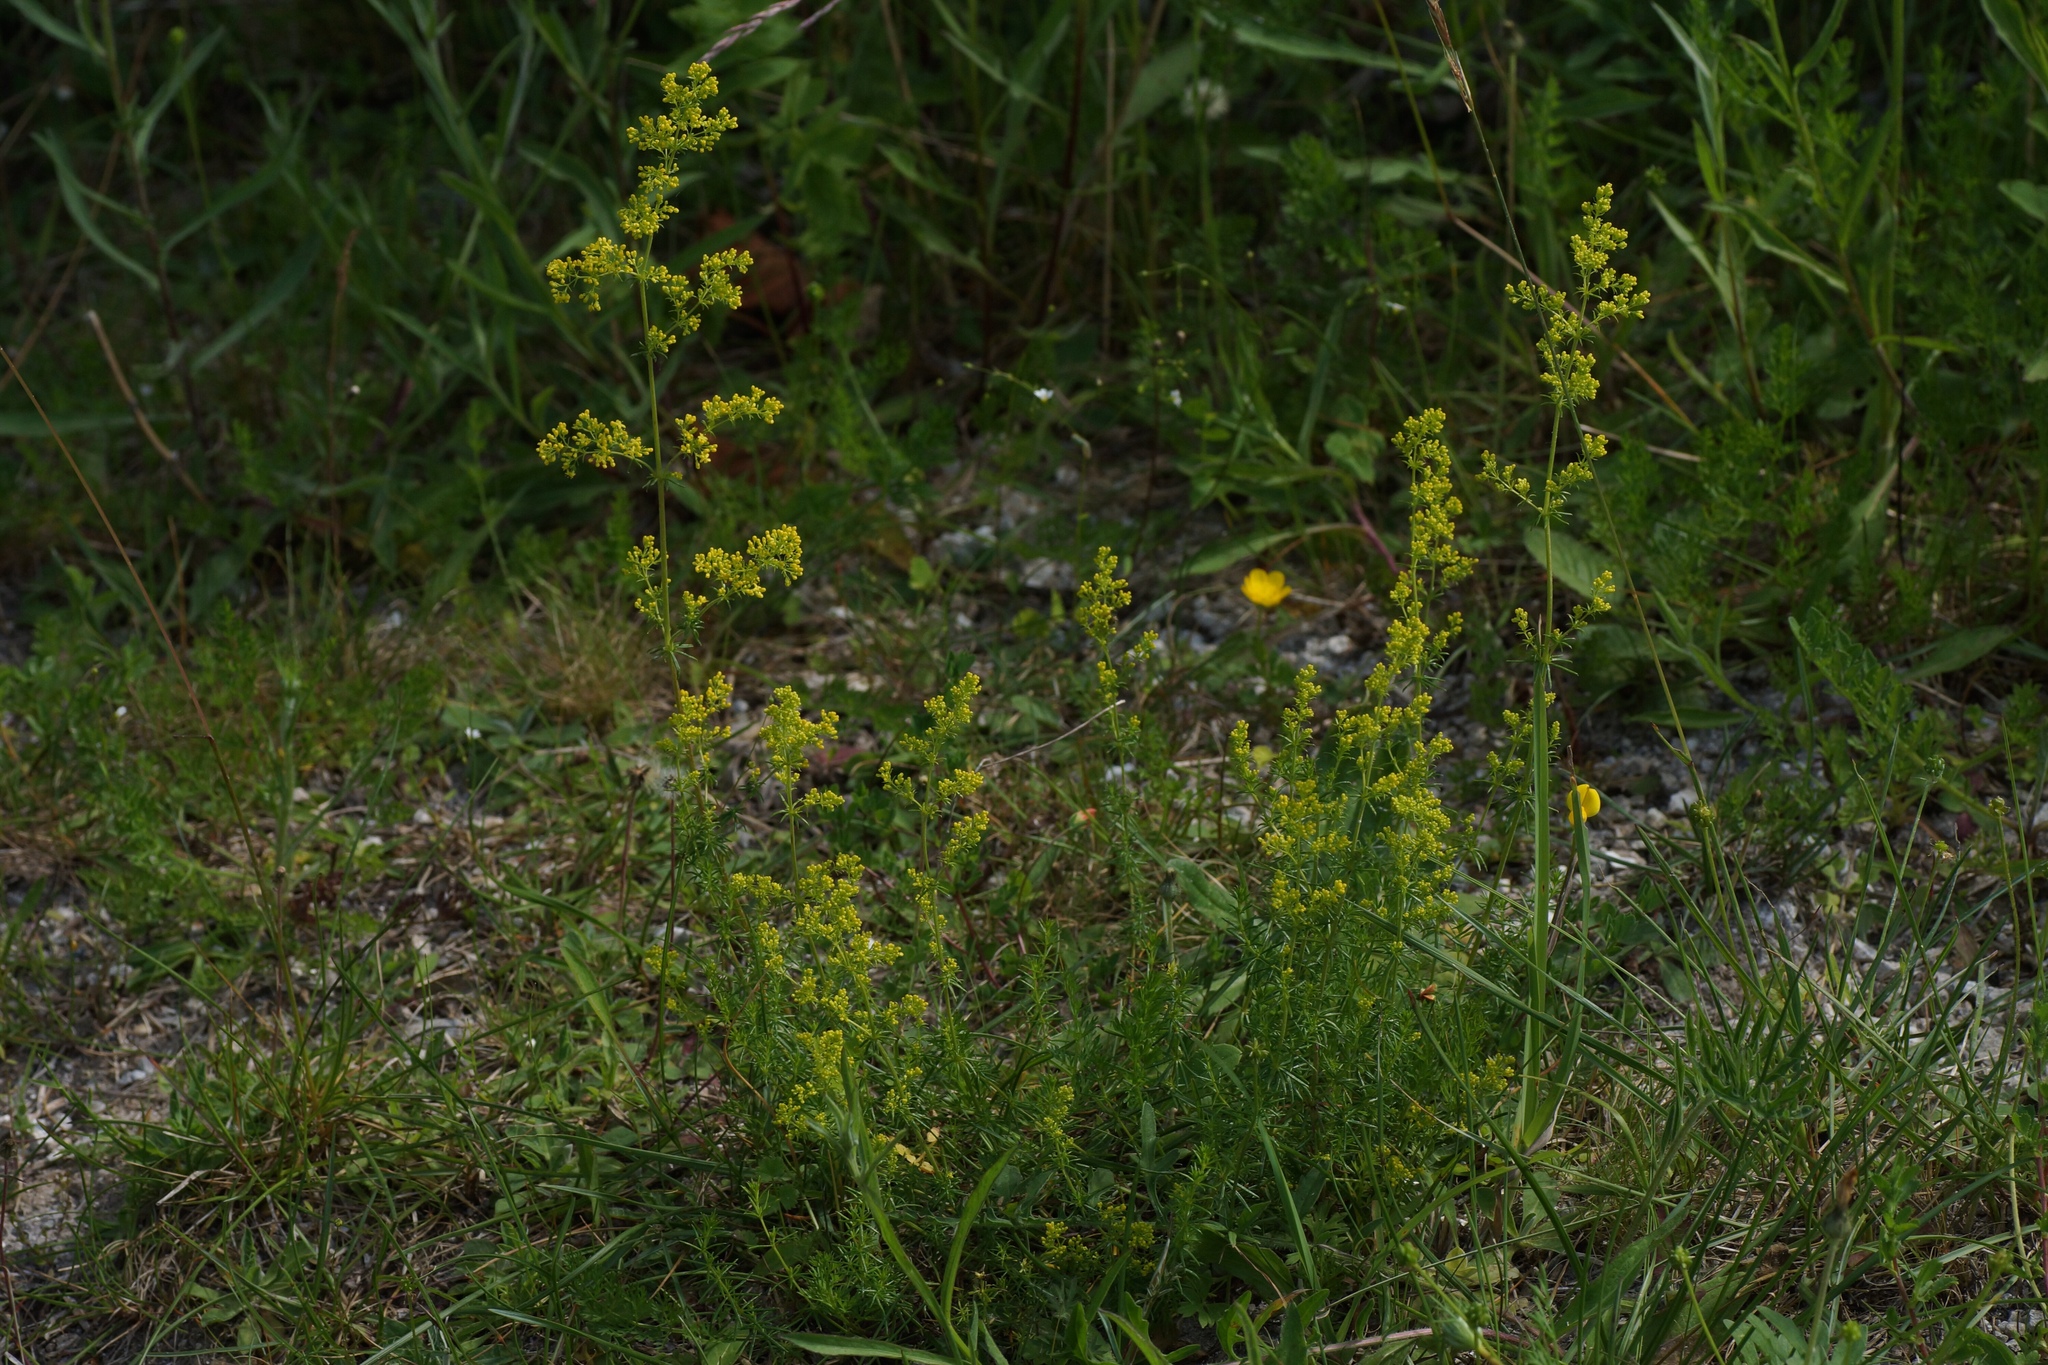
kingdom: Plantae
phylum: Tracheophyta
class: Magnoliopsida
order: Gentianales
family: Rubiaceae
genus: Galium
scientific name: Galium verum
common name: Lady's bedstraw
